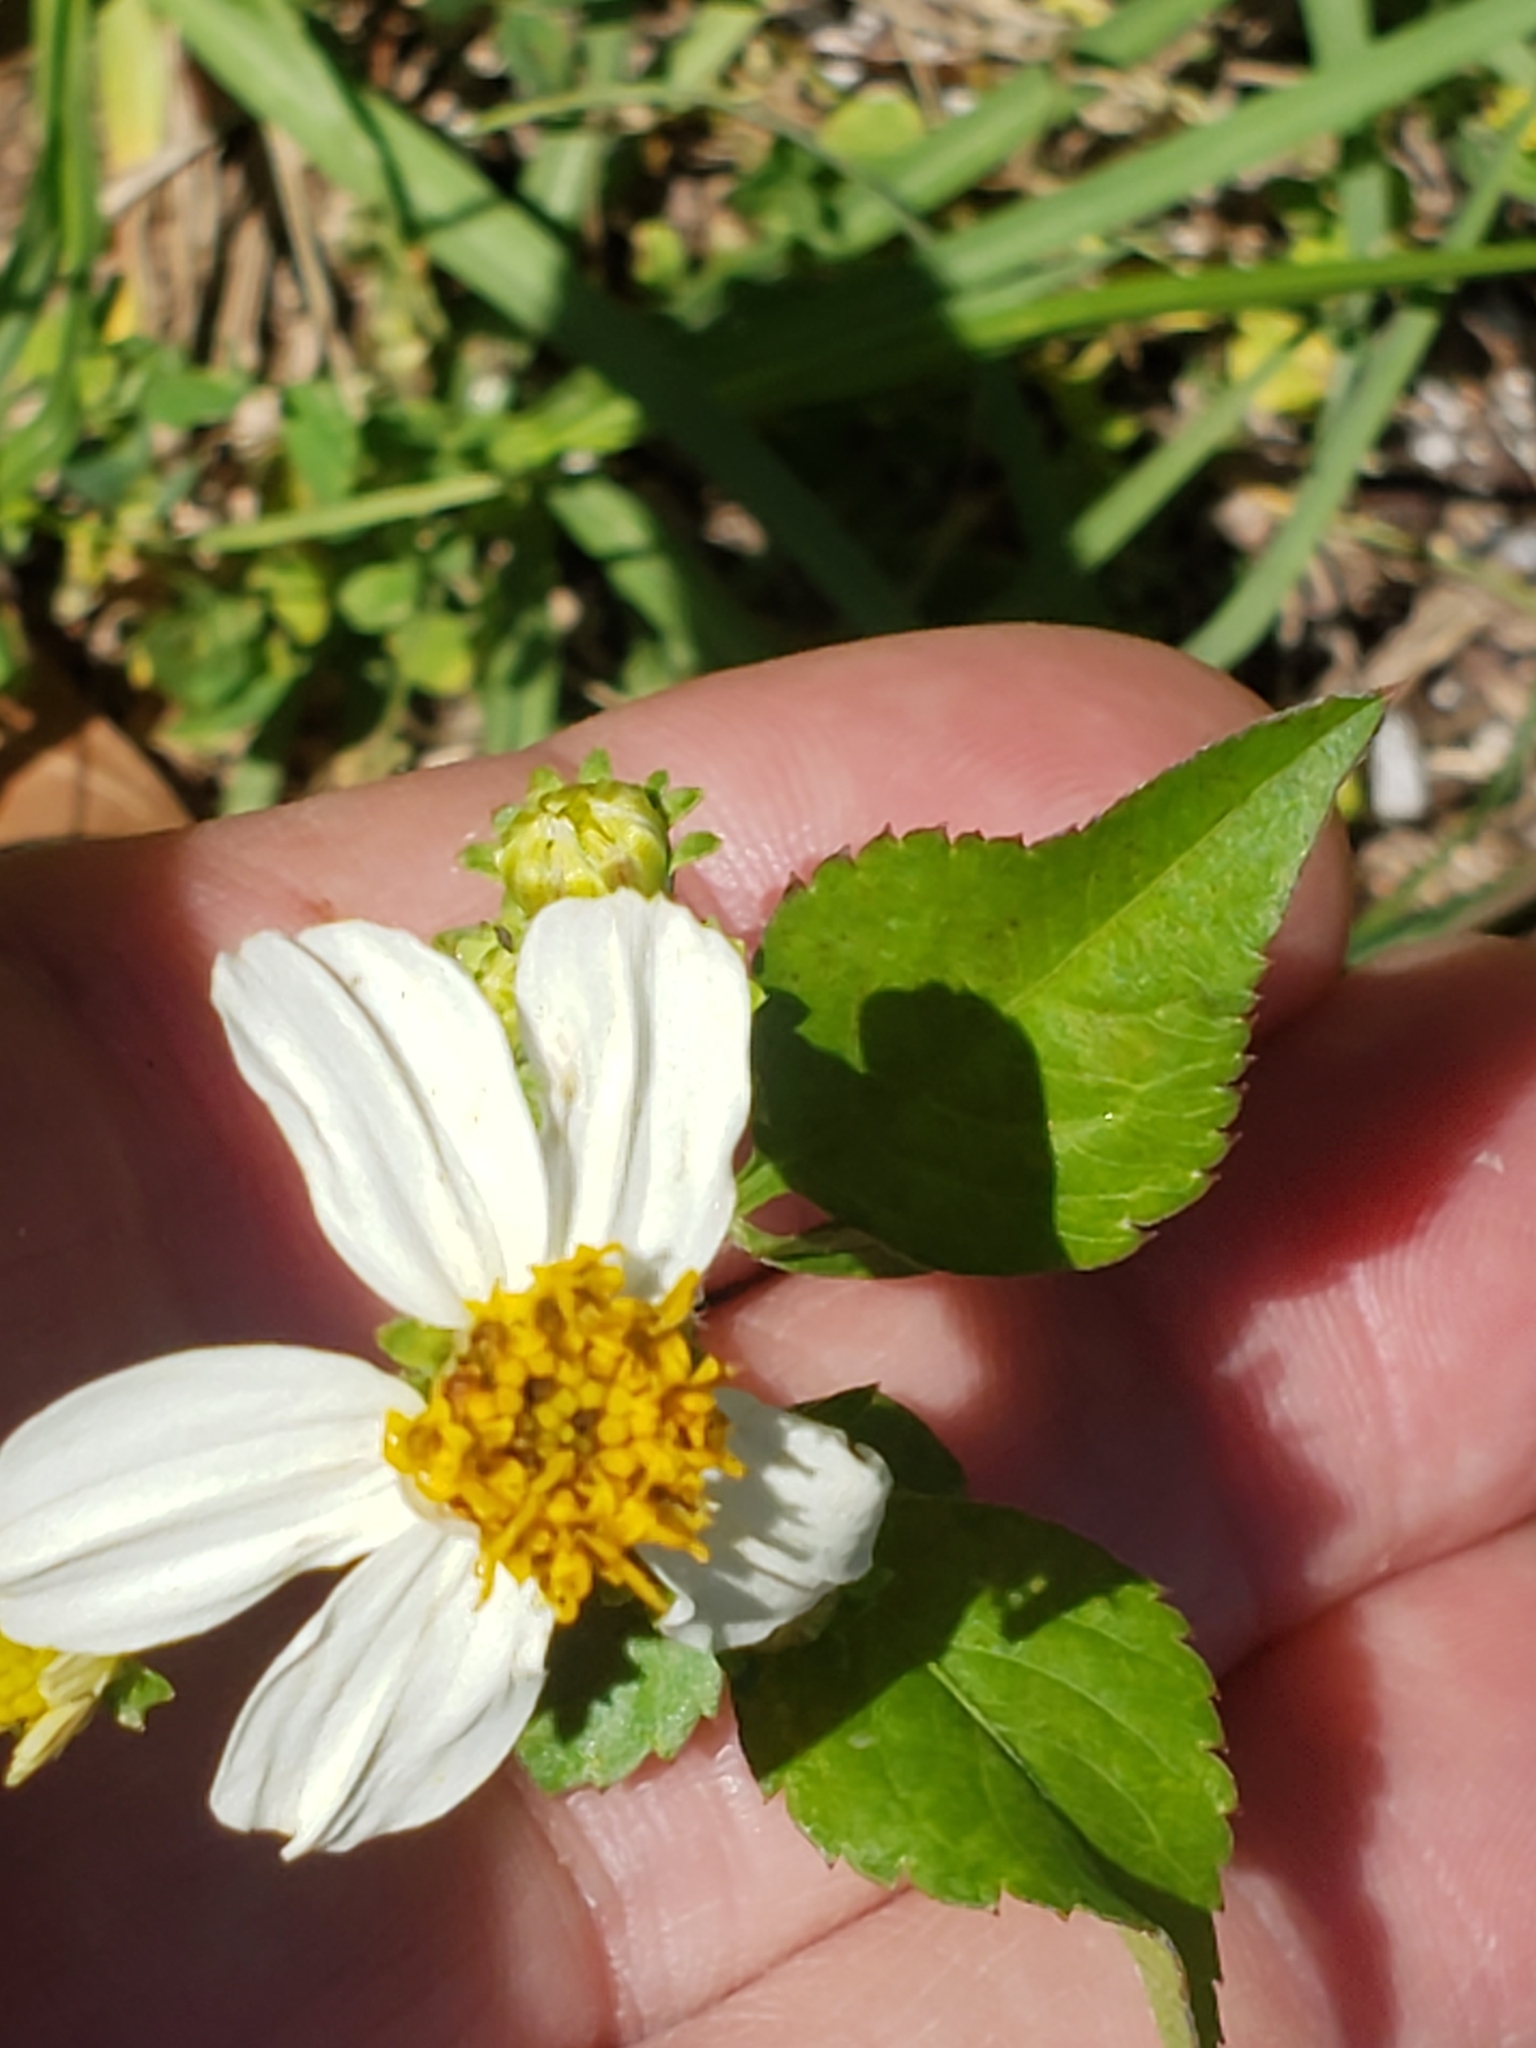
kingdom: Plantae
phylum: Tracheophyta
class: Magnoliopsida
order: Asterales
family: Asteraceae
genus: Bidens
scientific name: Bidens alba
